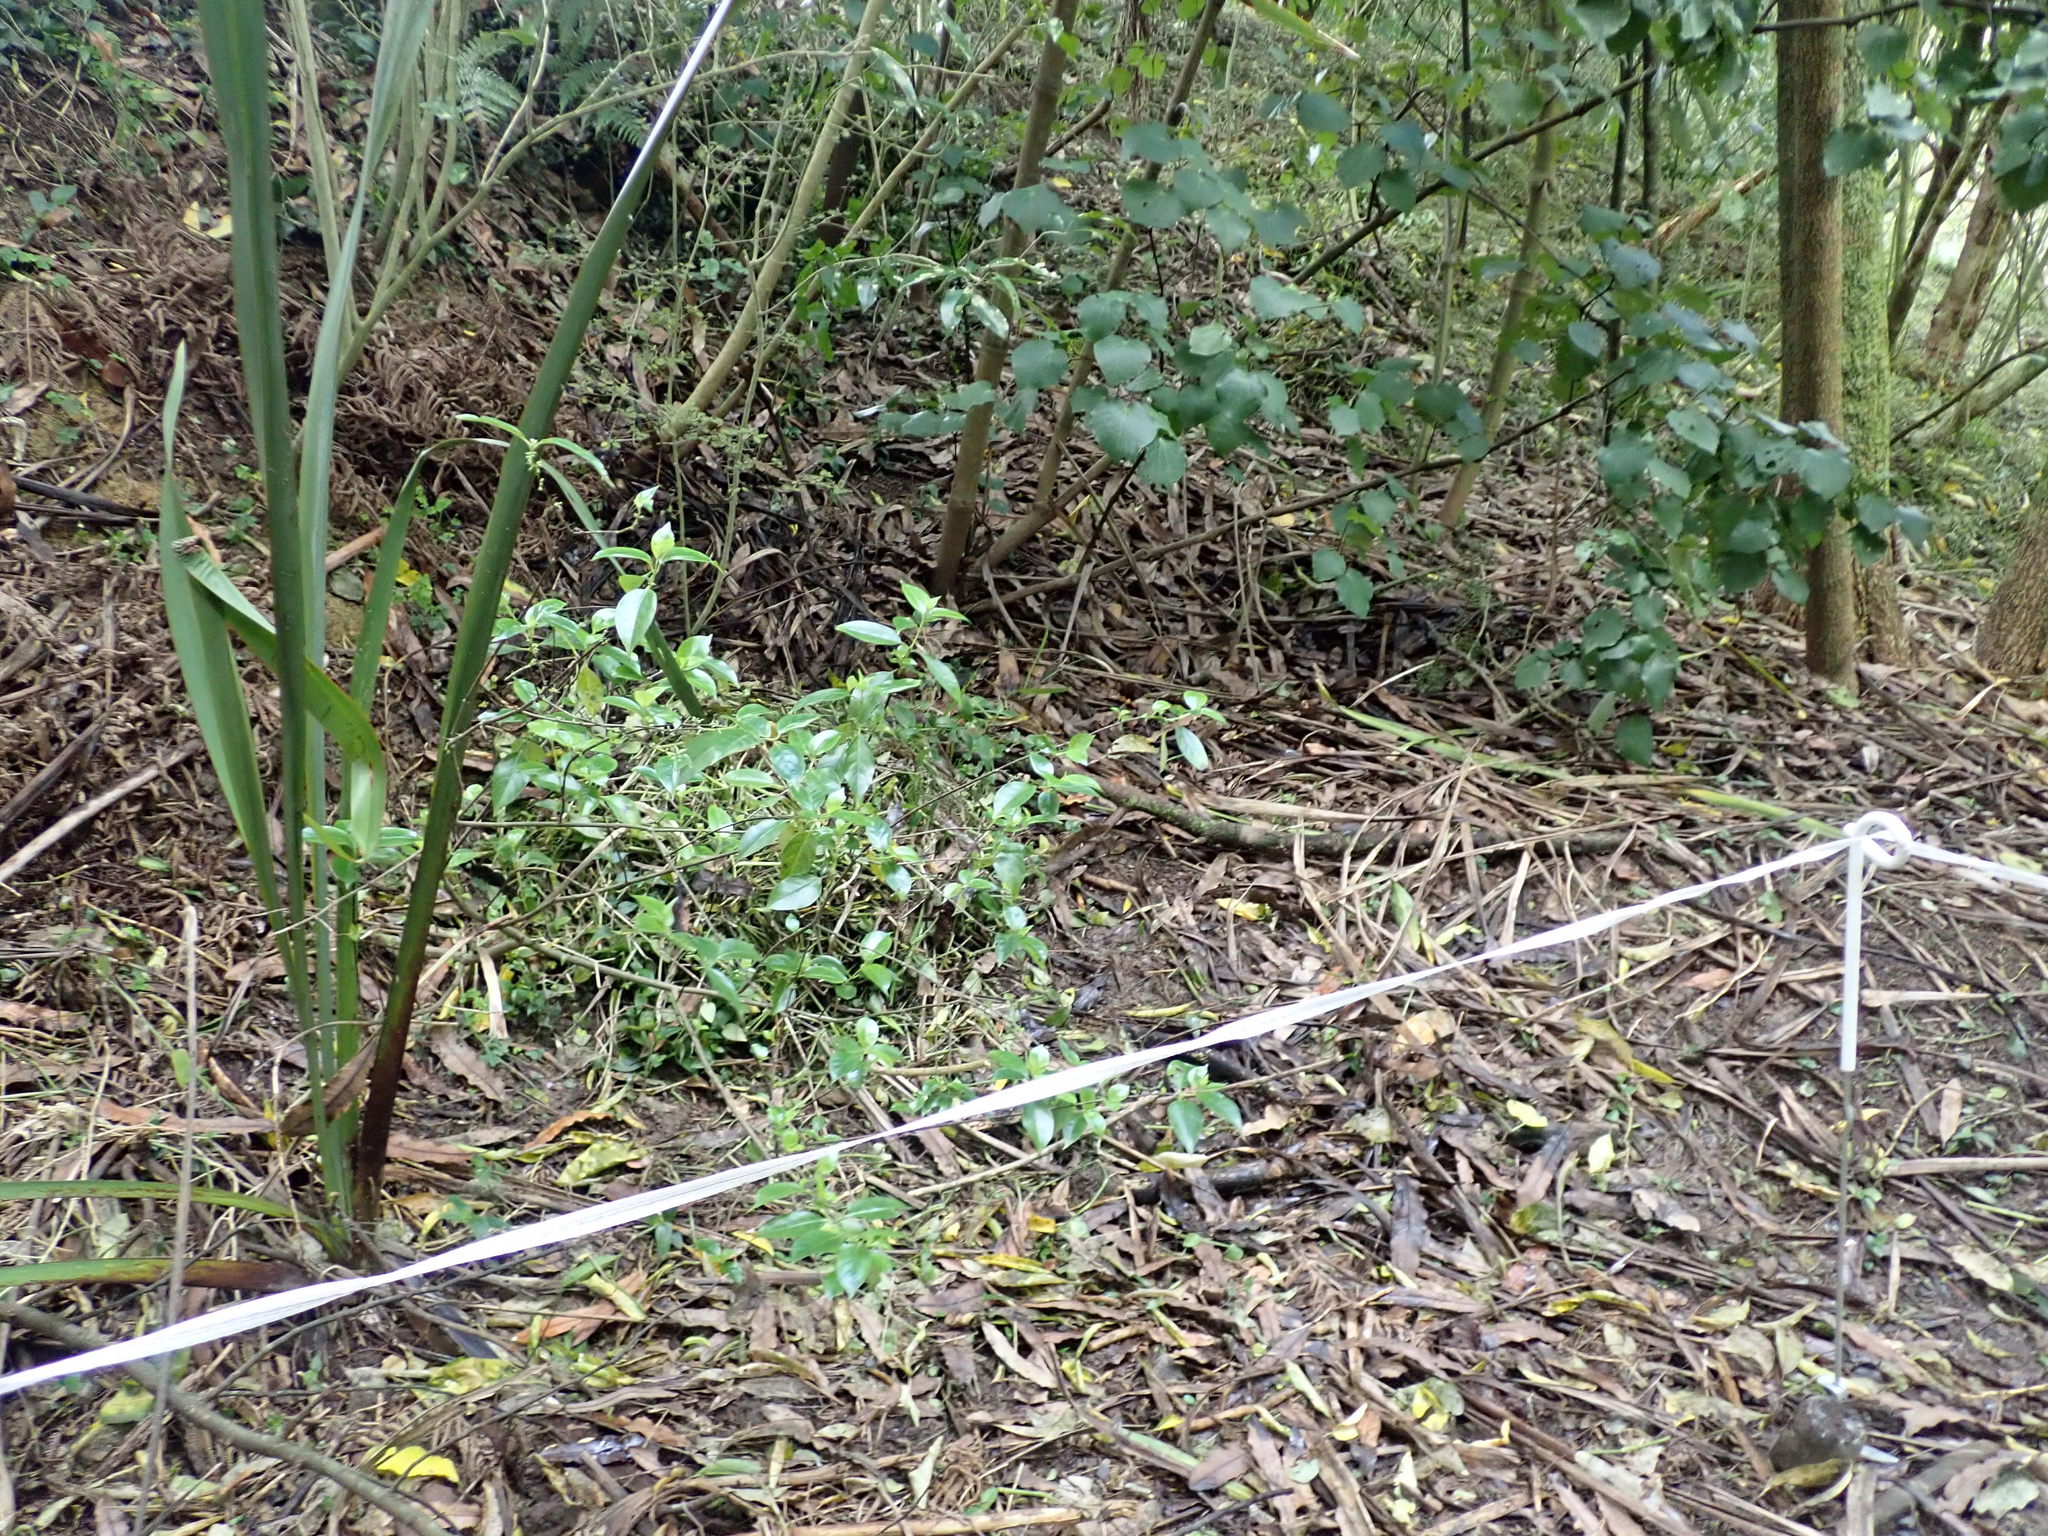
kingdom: Plantae
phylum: Tracheophyta
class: Liliopsida
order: Commelinales
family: Commelinaceae
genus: Tradescantia
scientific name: Tradescantia fluminensis
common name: Wandering-jew
